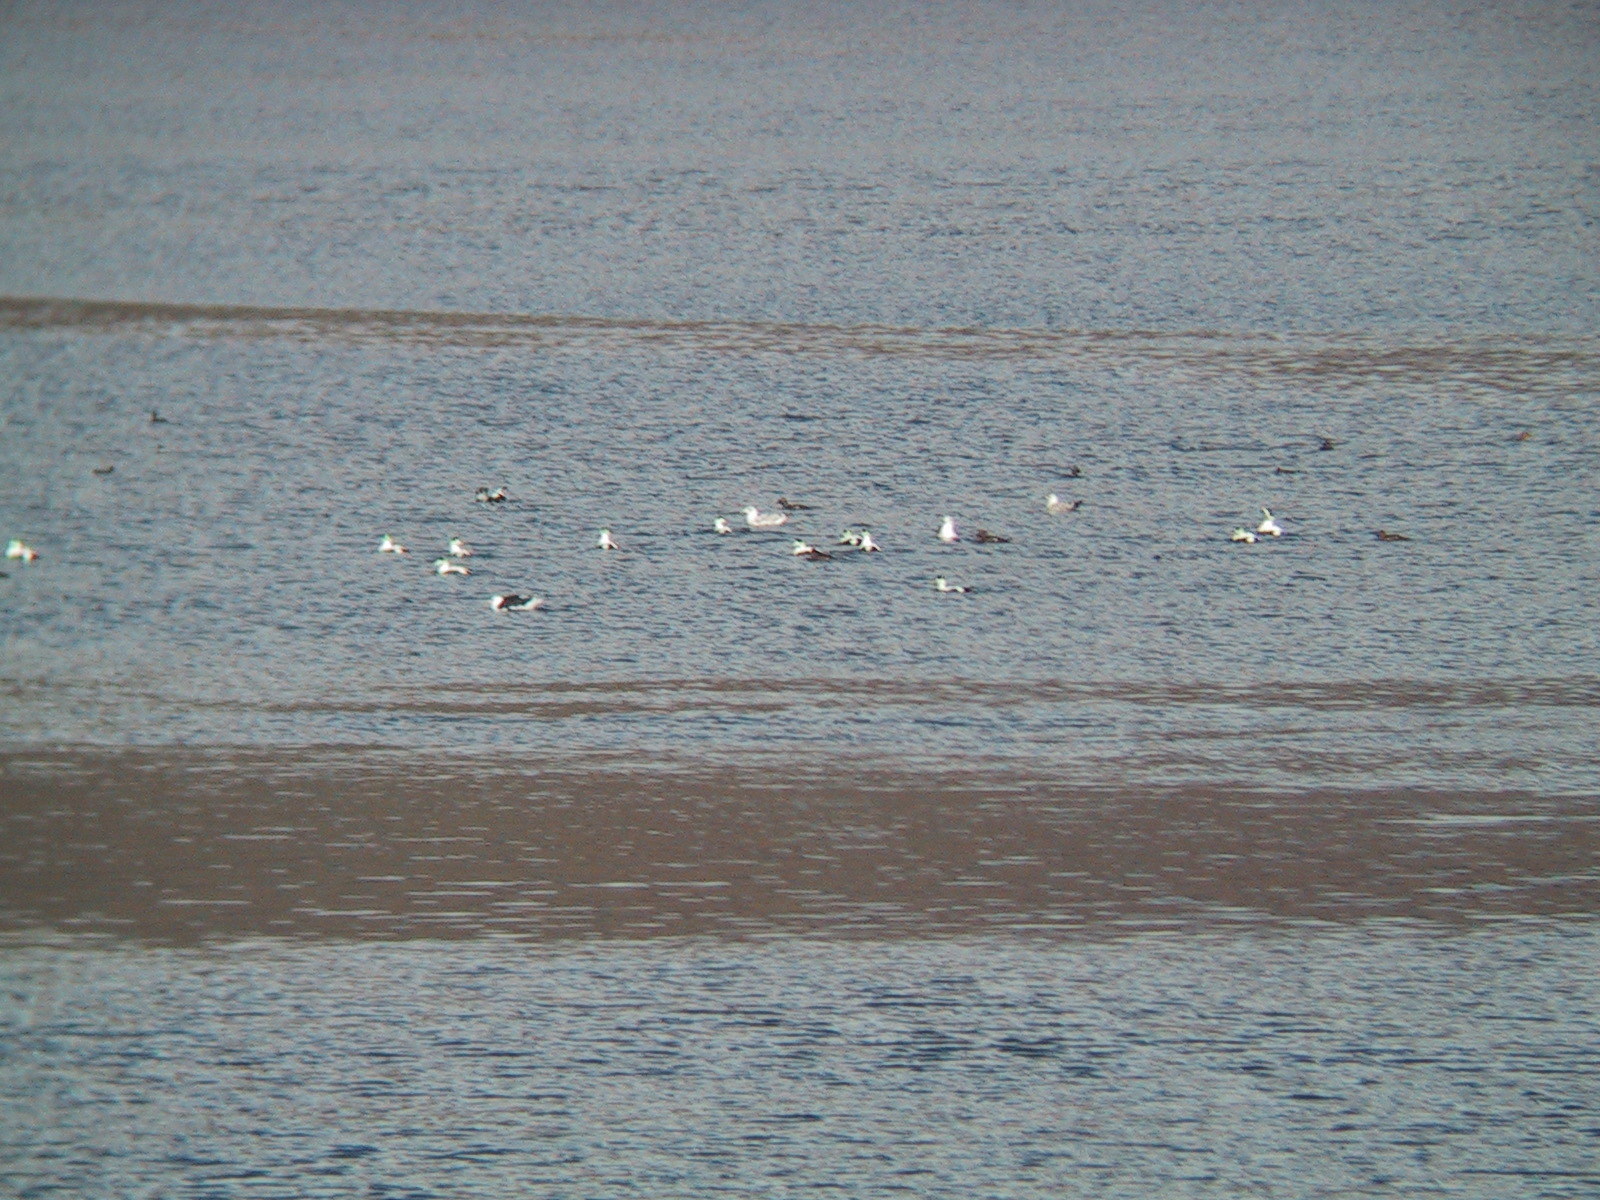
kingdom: Animalia
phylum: Chordata
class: Aves
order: Charadriiformes
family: Laridae
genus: Larus
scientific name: Larus marinus
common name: Great black-backed gull
